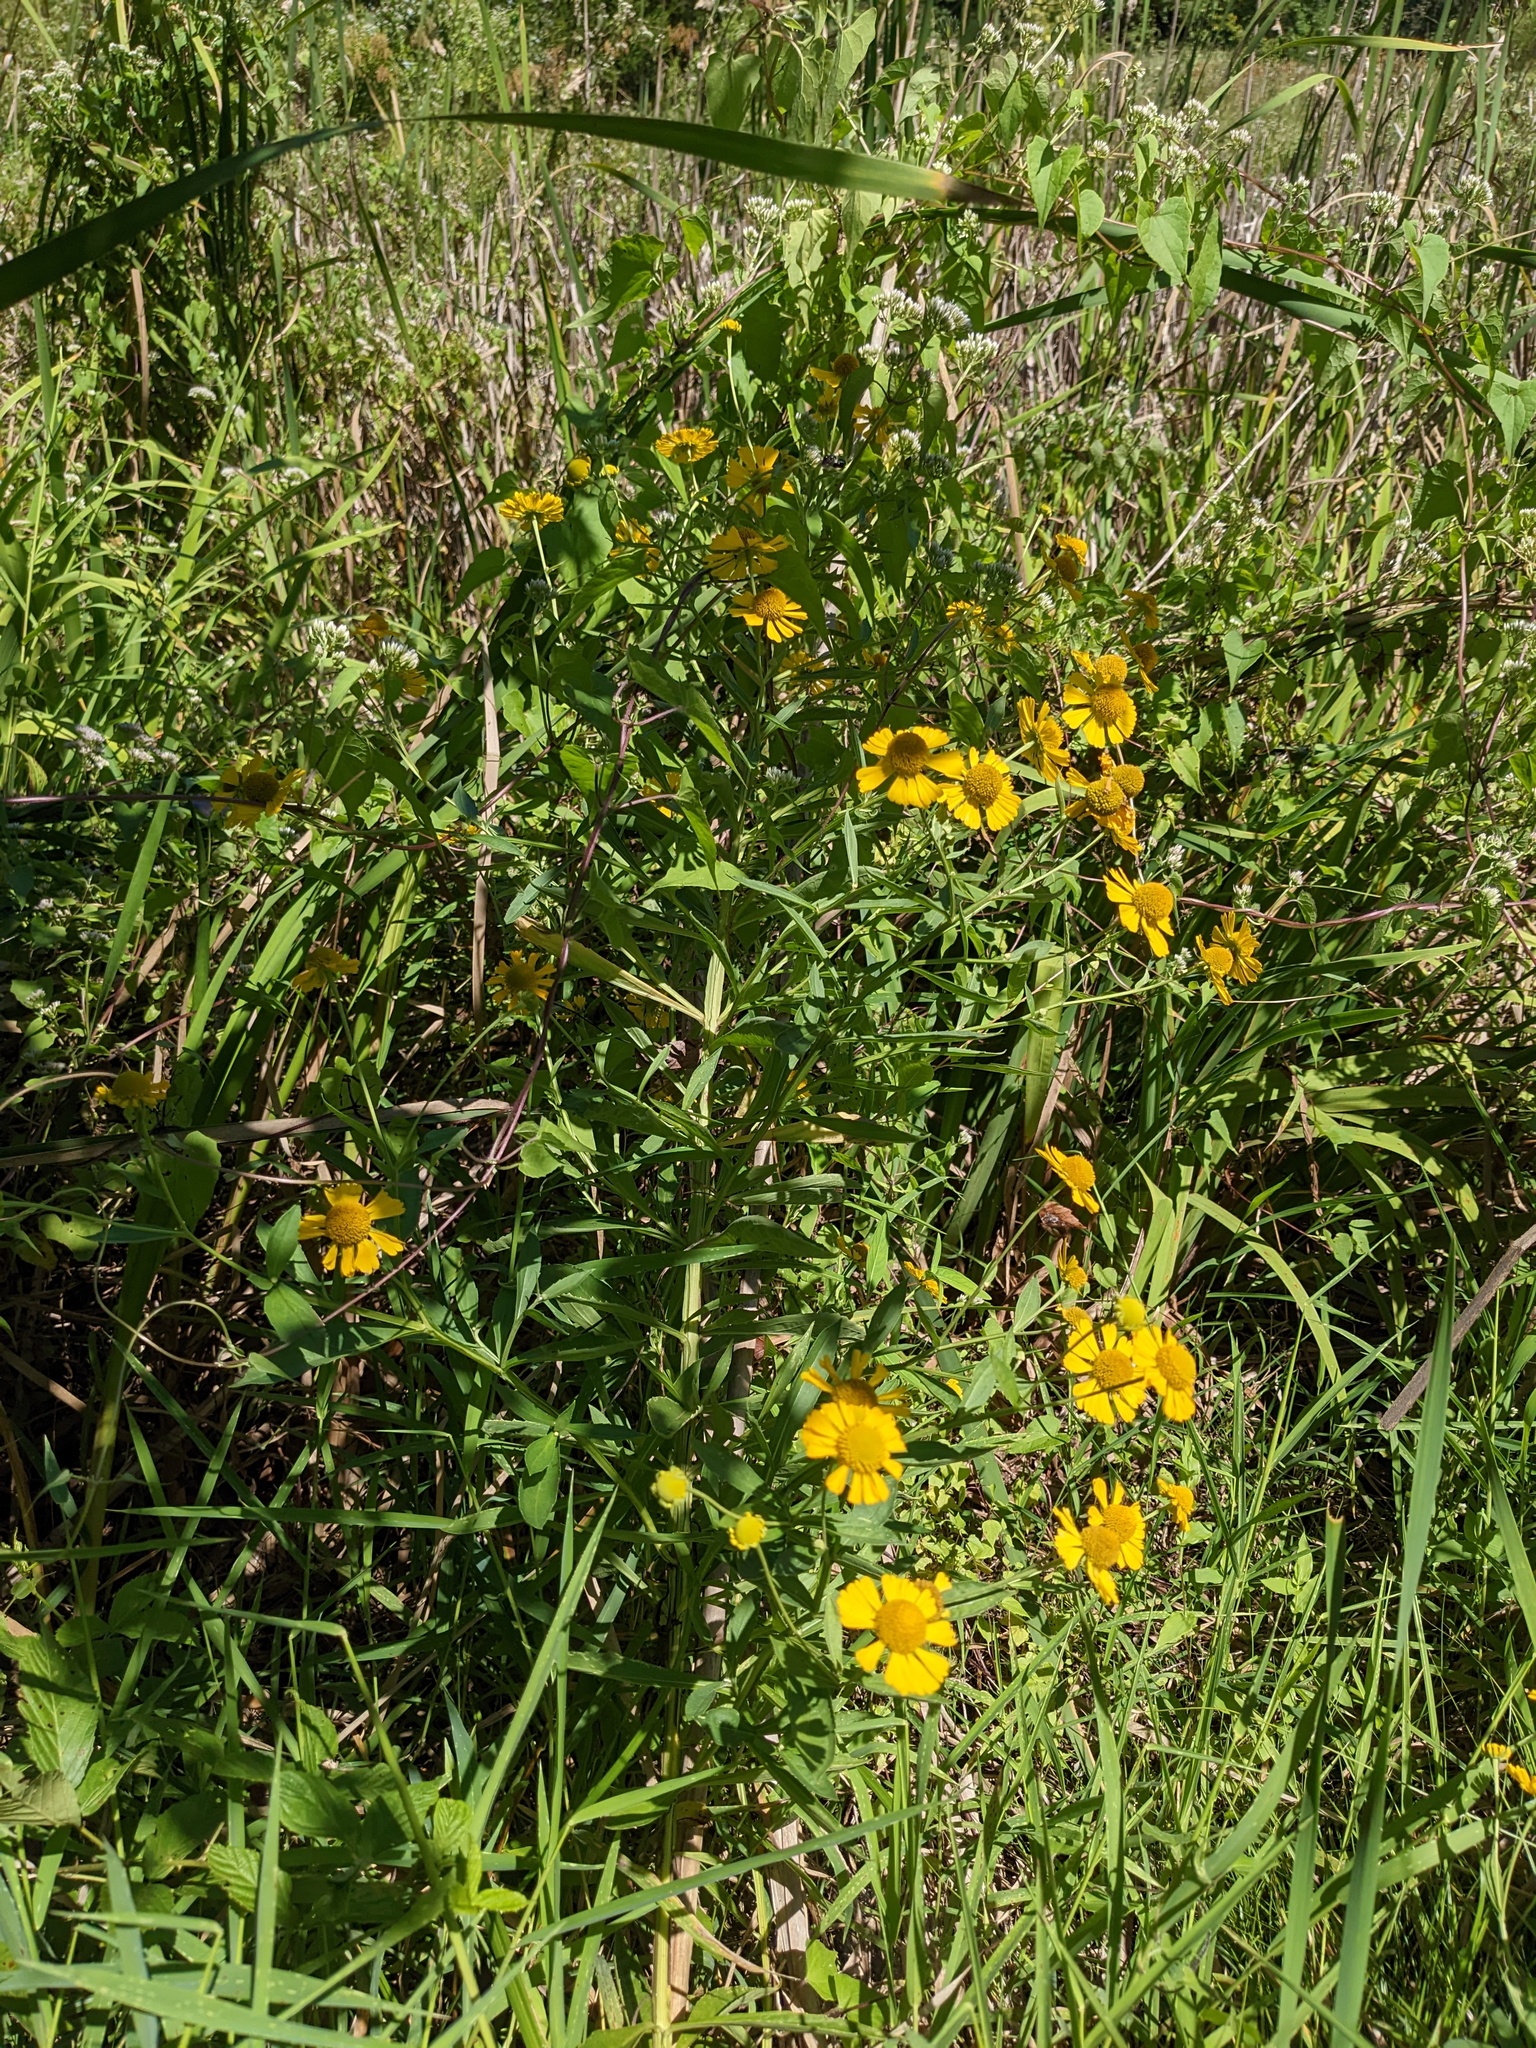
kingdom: Plantae
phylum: Tracheophyta
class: Magnoliopsida
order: Asterales
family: Asteraceae
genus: Helenium
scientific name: Helenium autumnale
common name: Sneezeweed
